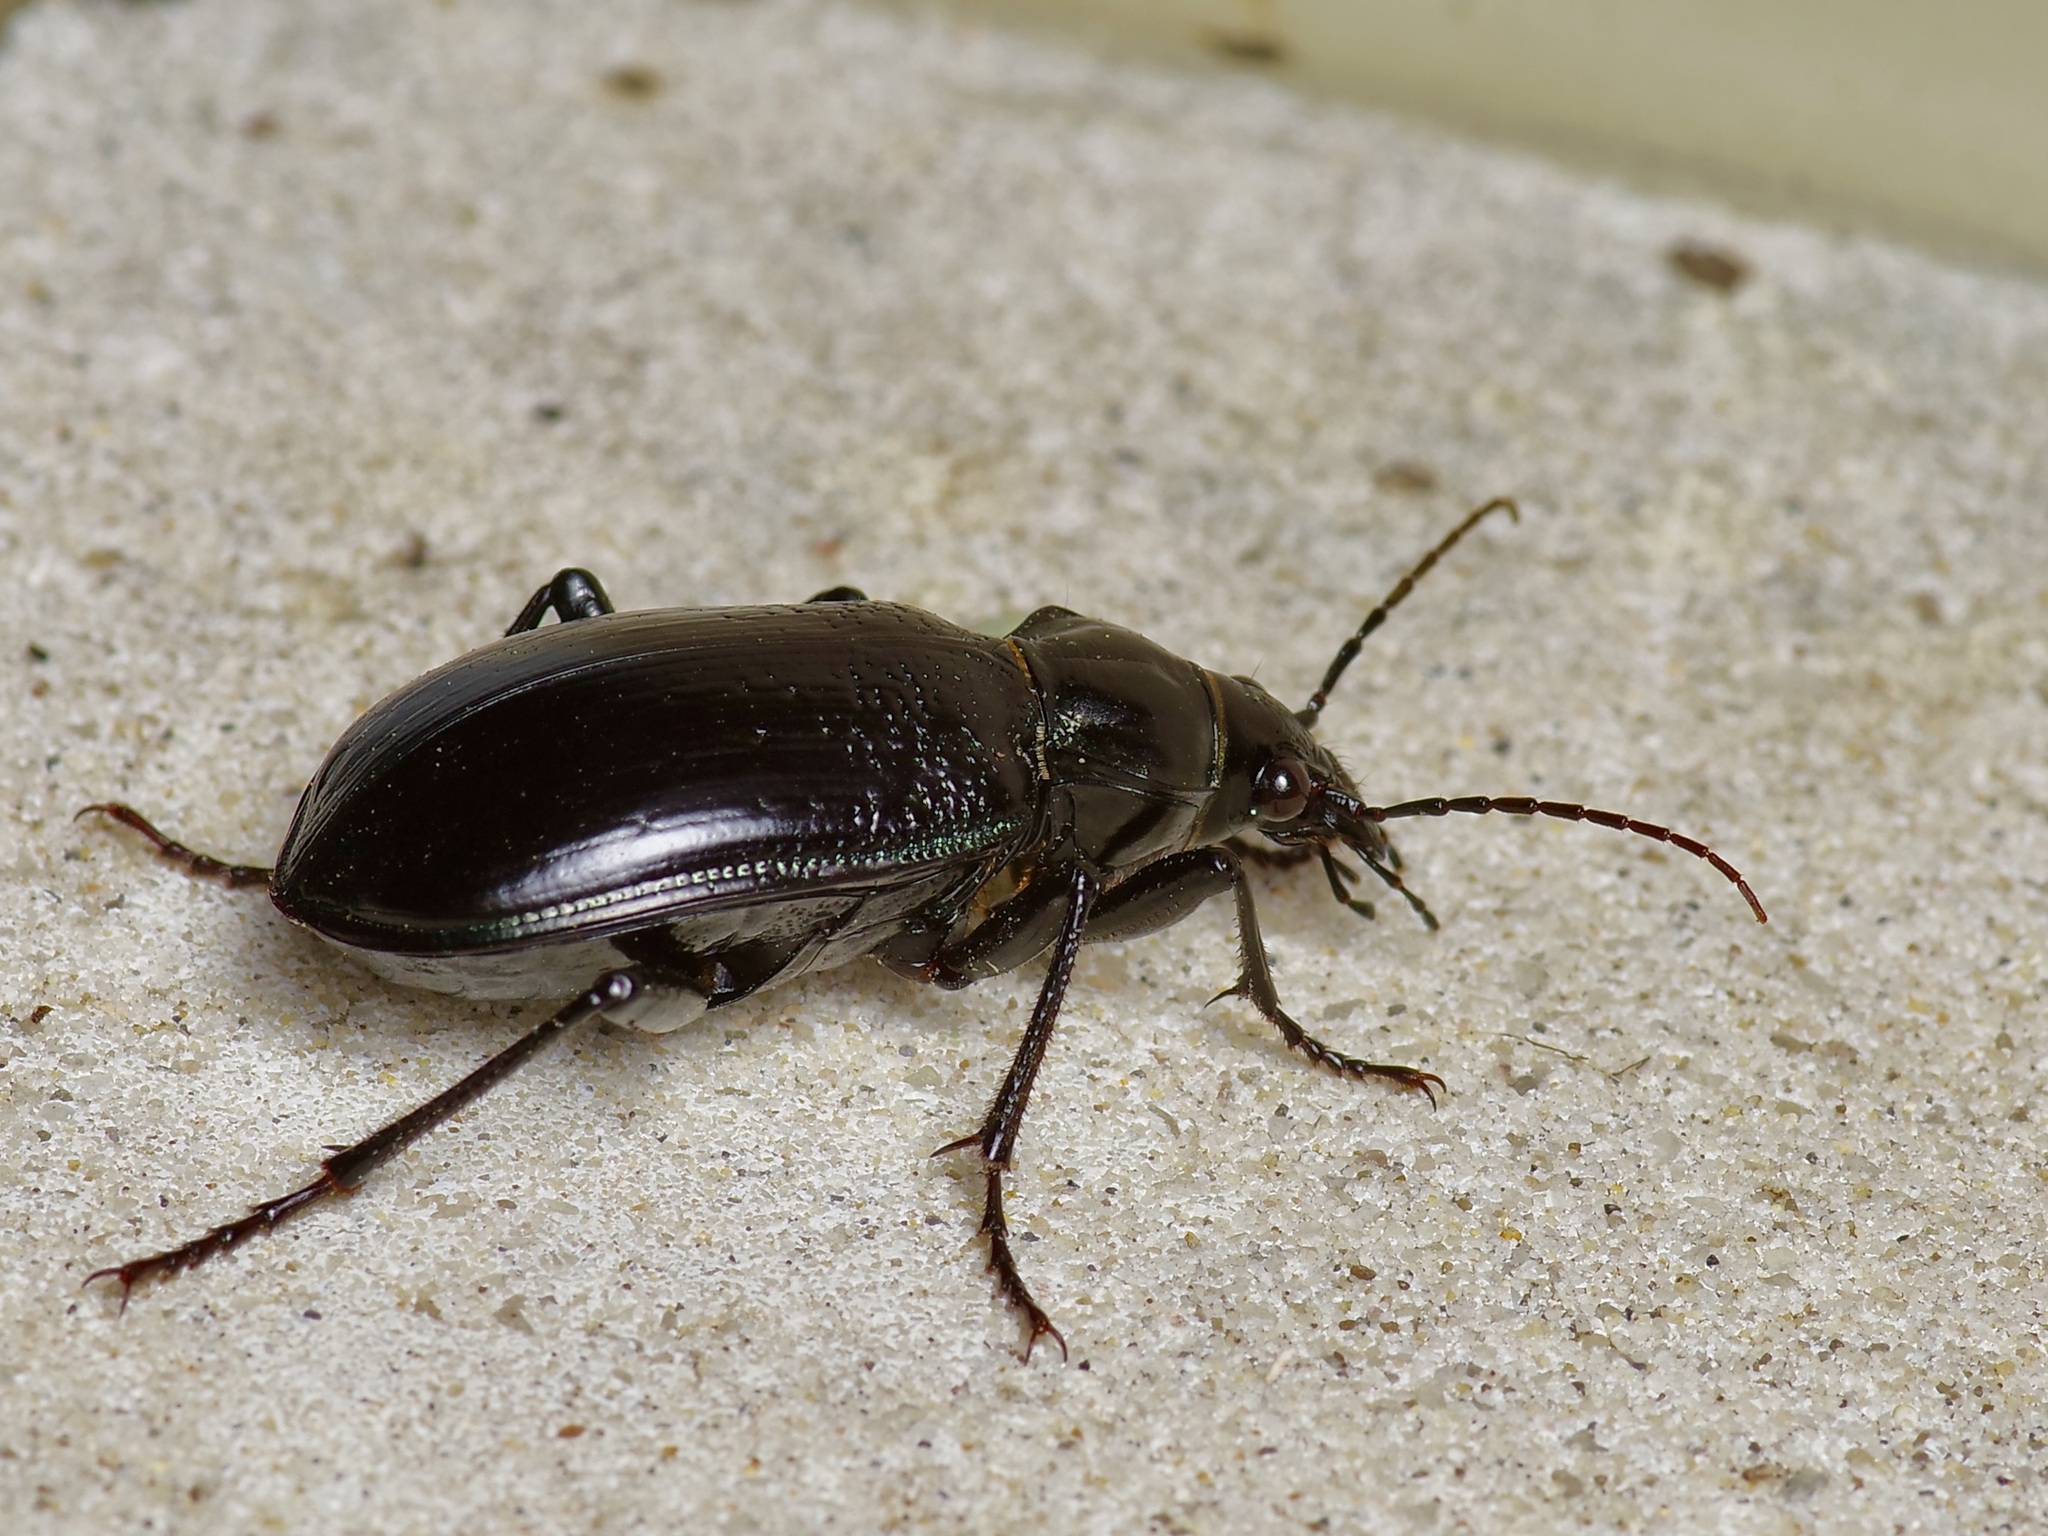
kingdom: Animalia
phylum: Arthropoda
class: Insecta
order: Coleoptera
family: Carabidae
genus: Calosoma
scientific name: Calosoma marginale
